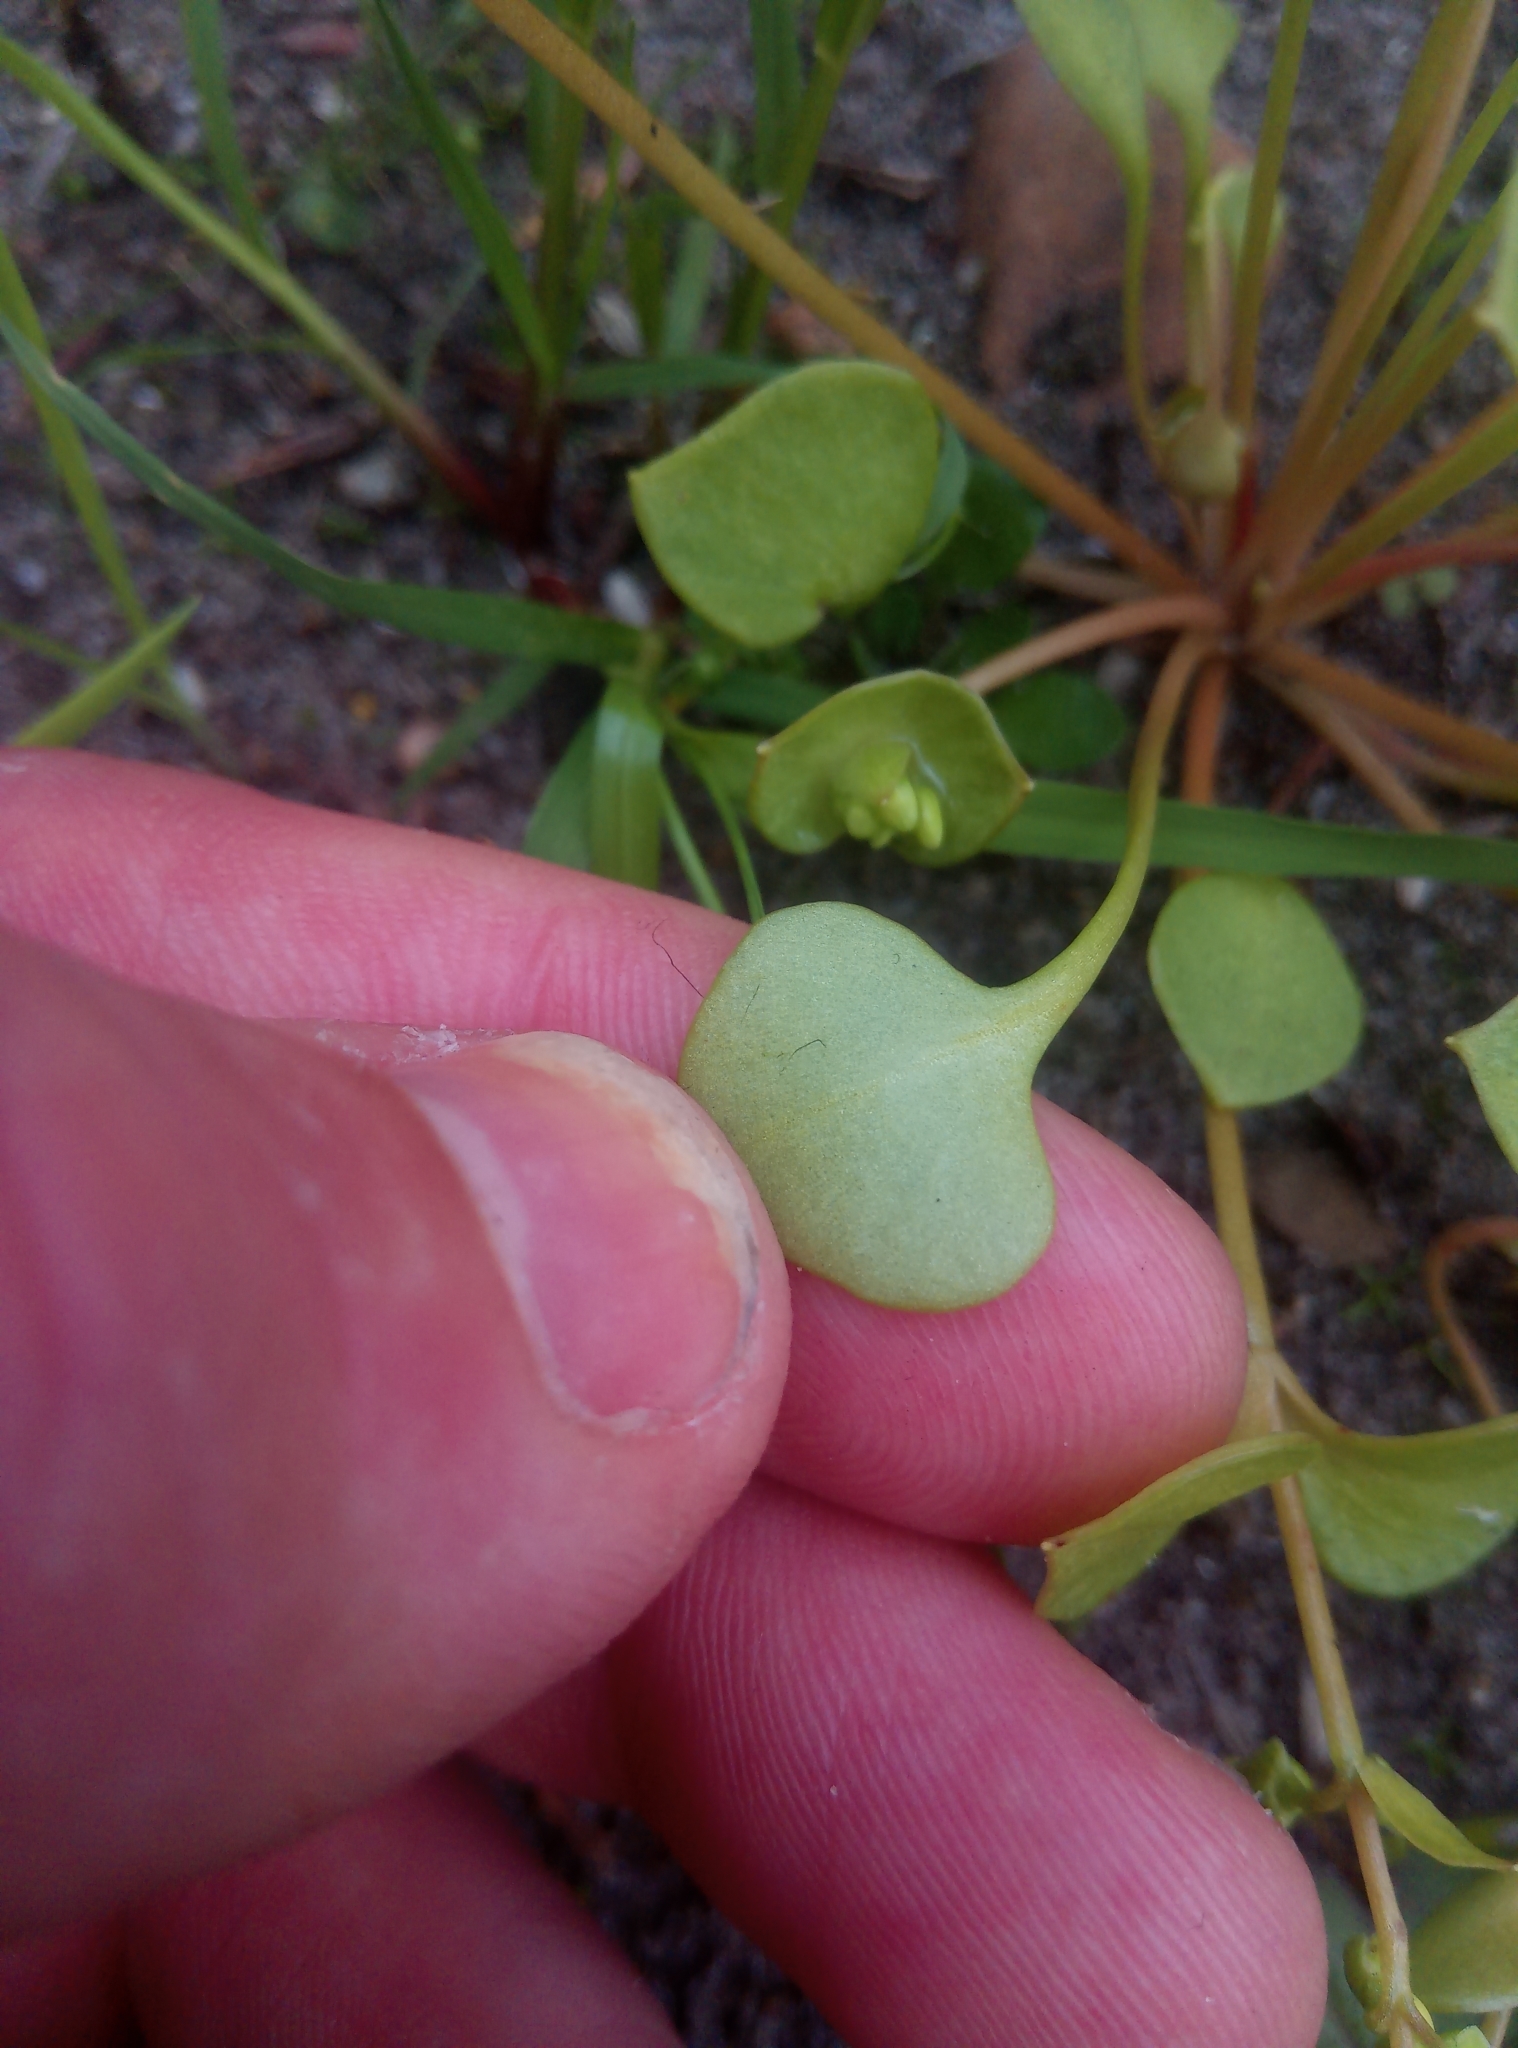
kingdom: Plantae
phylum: Tracheophyta
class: Magnoliopsida
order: Caryophyllales
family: Montiaceae
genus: Claytonia
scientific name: Claytonia perfoliata
